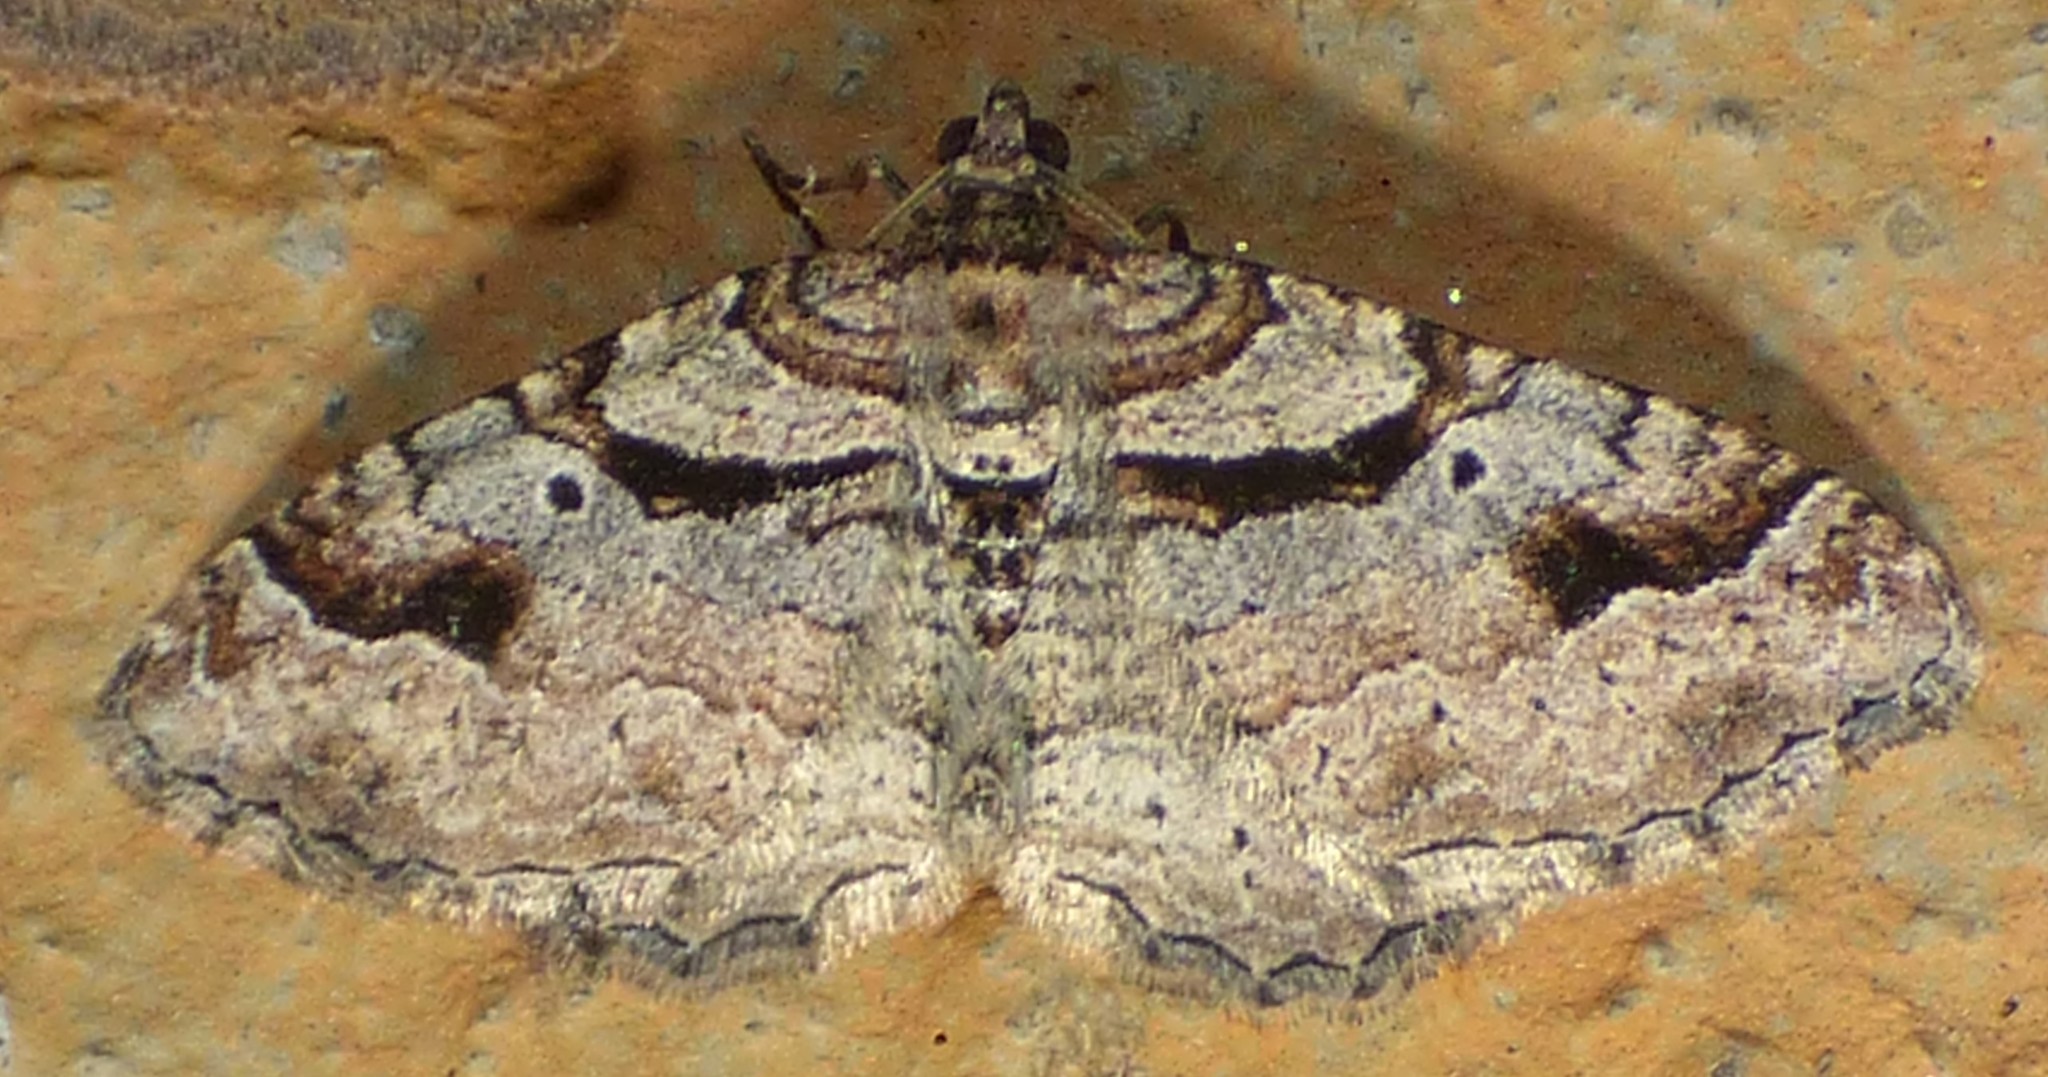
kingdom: Animalia
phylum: Arthropoda
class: Insecta
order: Lepidoptera
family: Geometridae
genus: Costaconvexa
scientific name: Costaconvexa centrostrigaria
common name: Bent-line carpet
